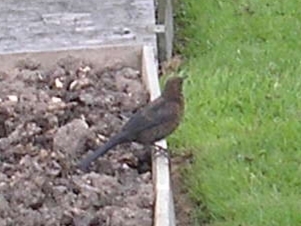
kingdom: Animalia
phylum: Chordata
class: Aves
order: Passeriformes
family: Turdidae
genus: Turdus
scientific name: Turdus merula
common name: Common blackbird
